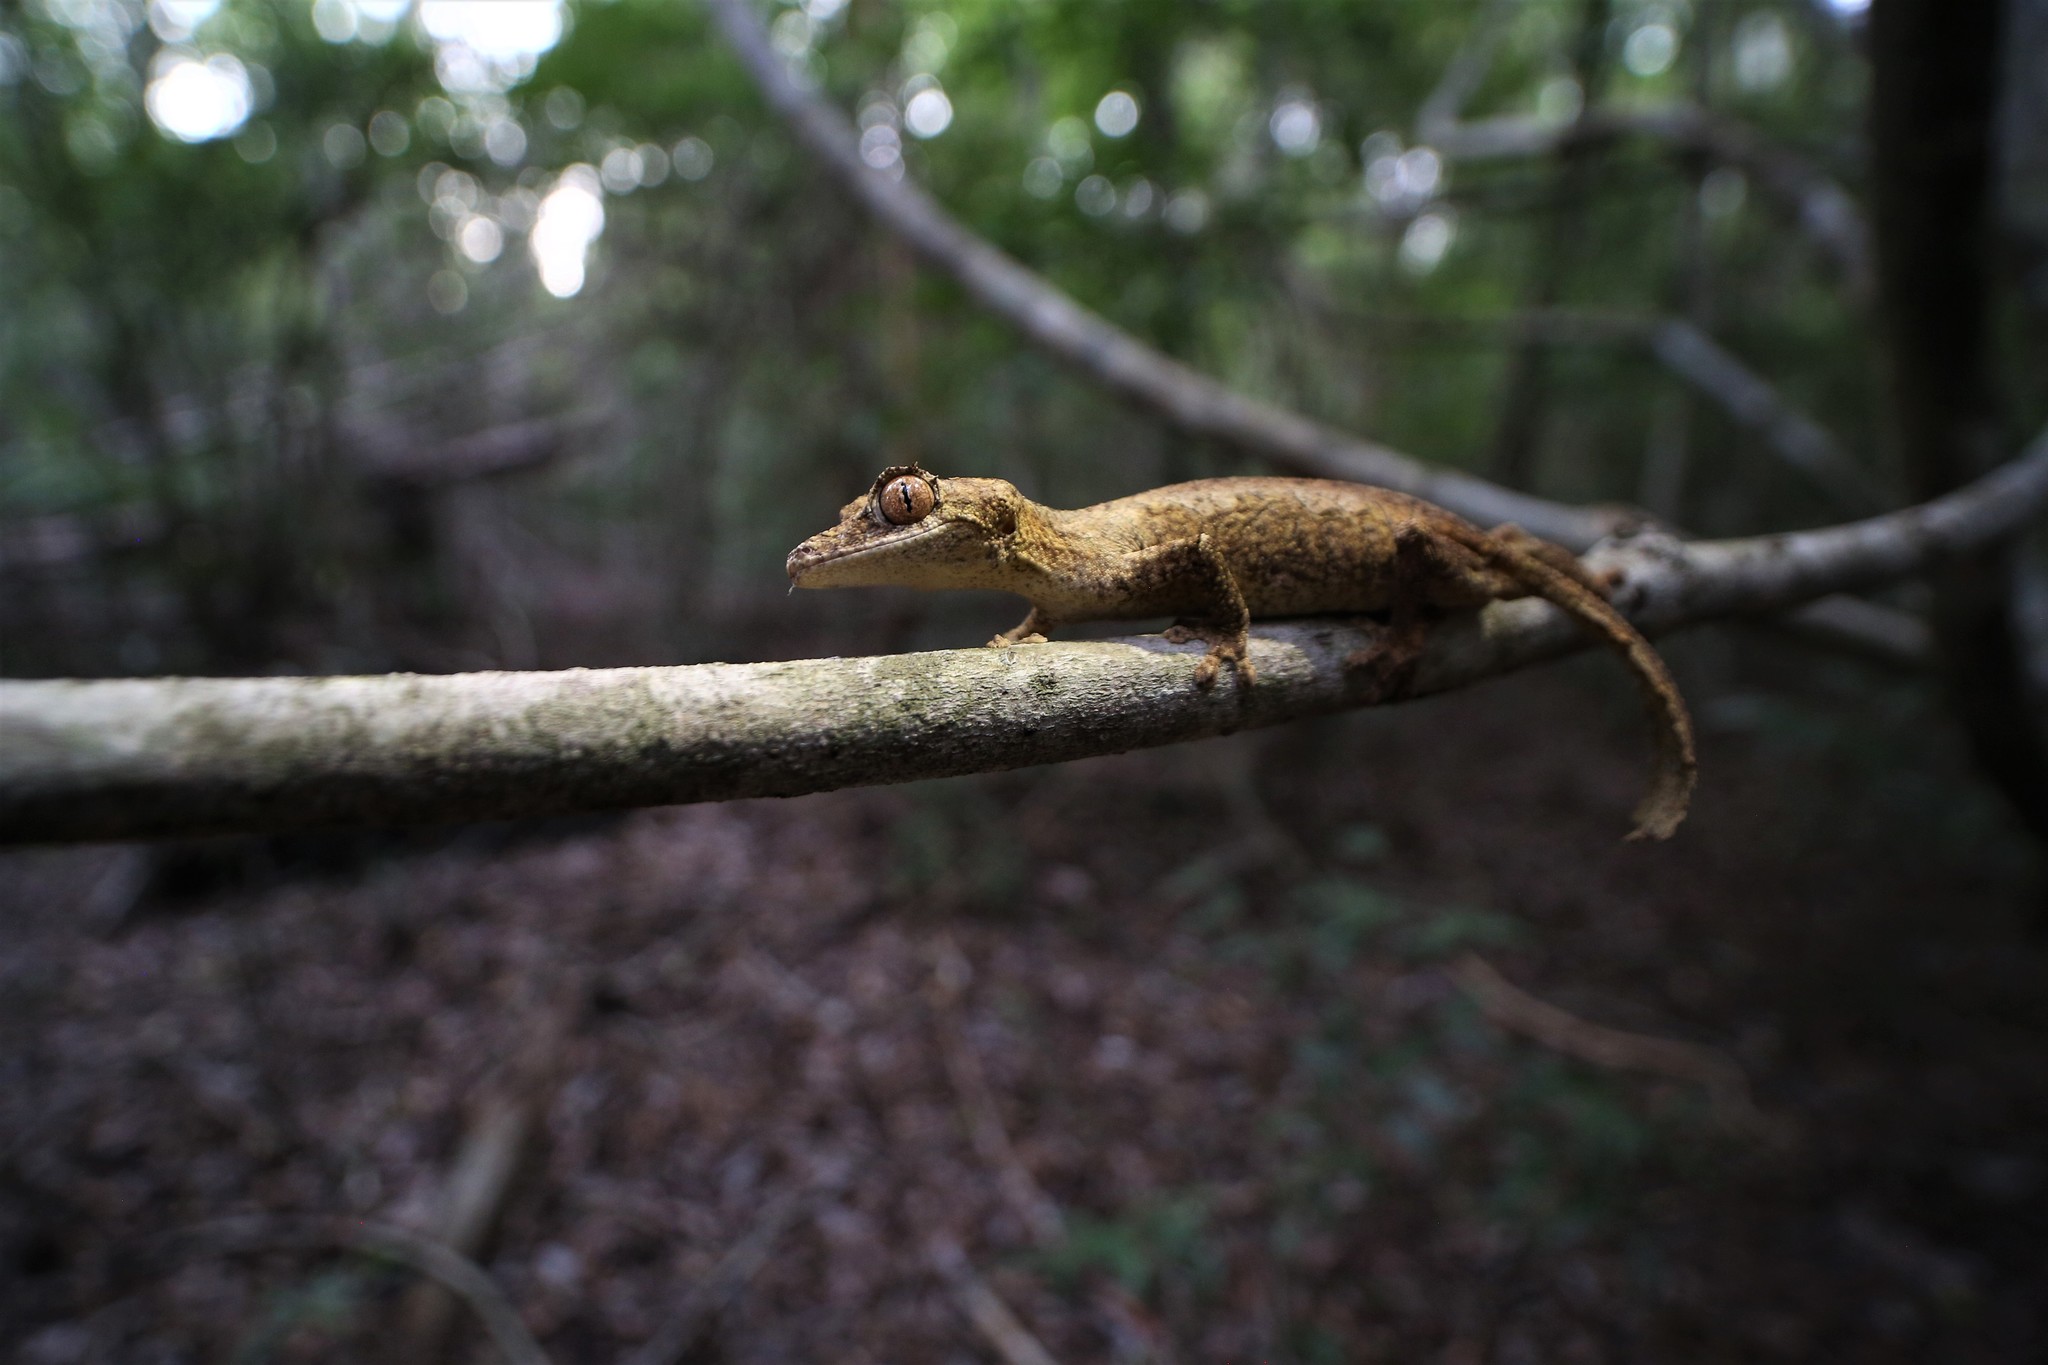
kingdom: Animalia
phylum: Chordata
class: Squamata
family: Gekkonidae
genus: Uroplatus
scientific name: Uroplatus guentheri
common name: Gunther's fiat-tail gecko
